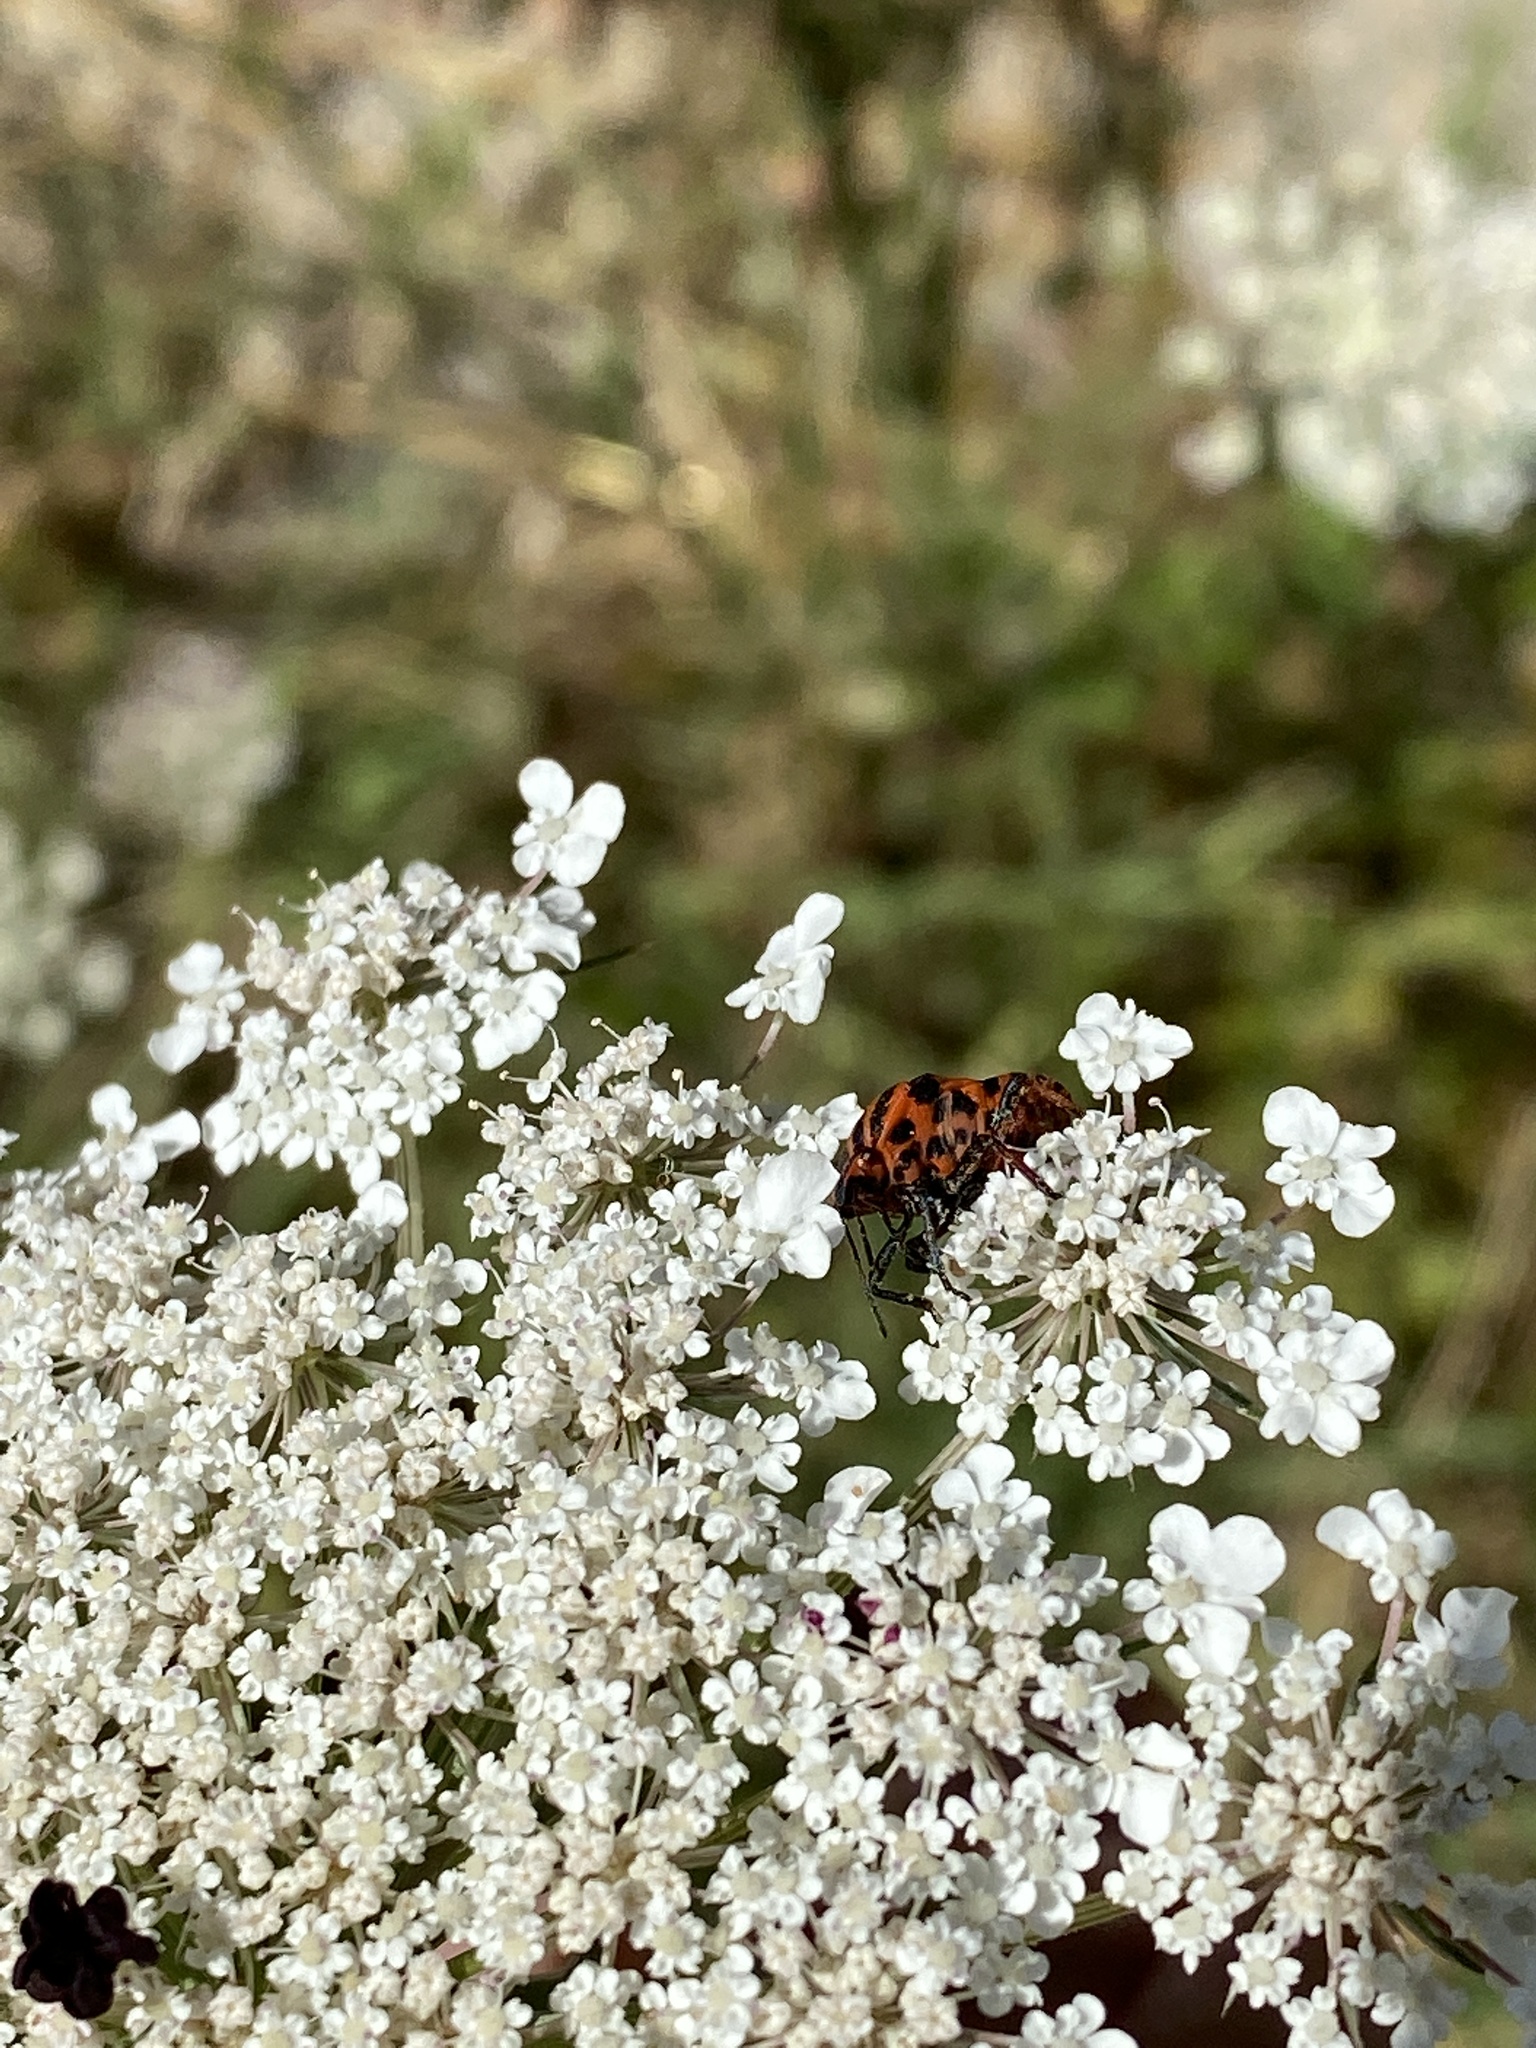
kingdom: Animalia
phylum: Arthropoda
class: Insecta
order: Hemiptera
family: Pentatomidae
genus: Graphosoma
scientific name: Graphosoma italicum
